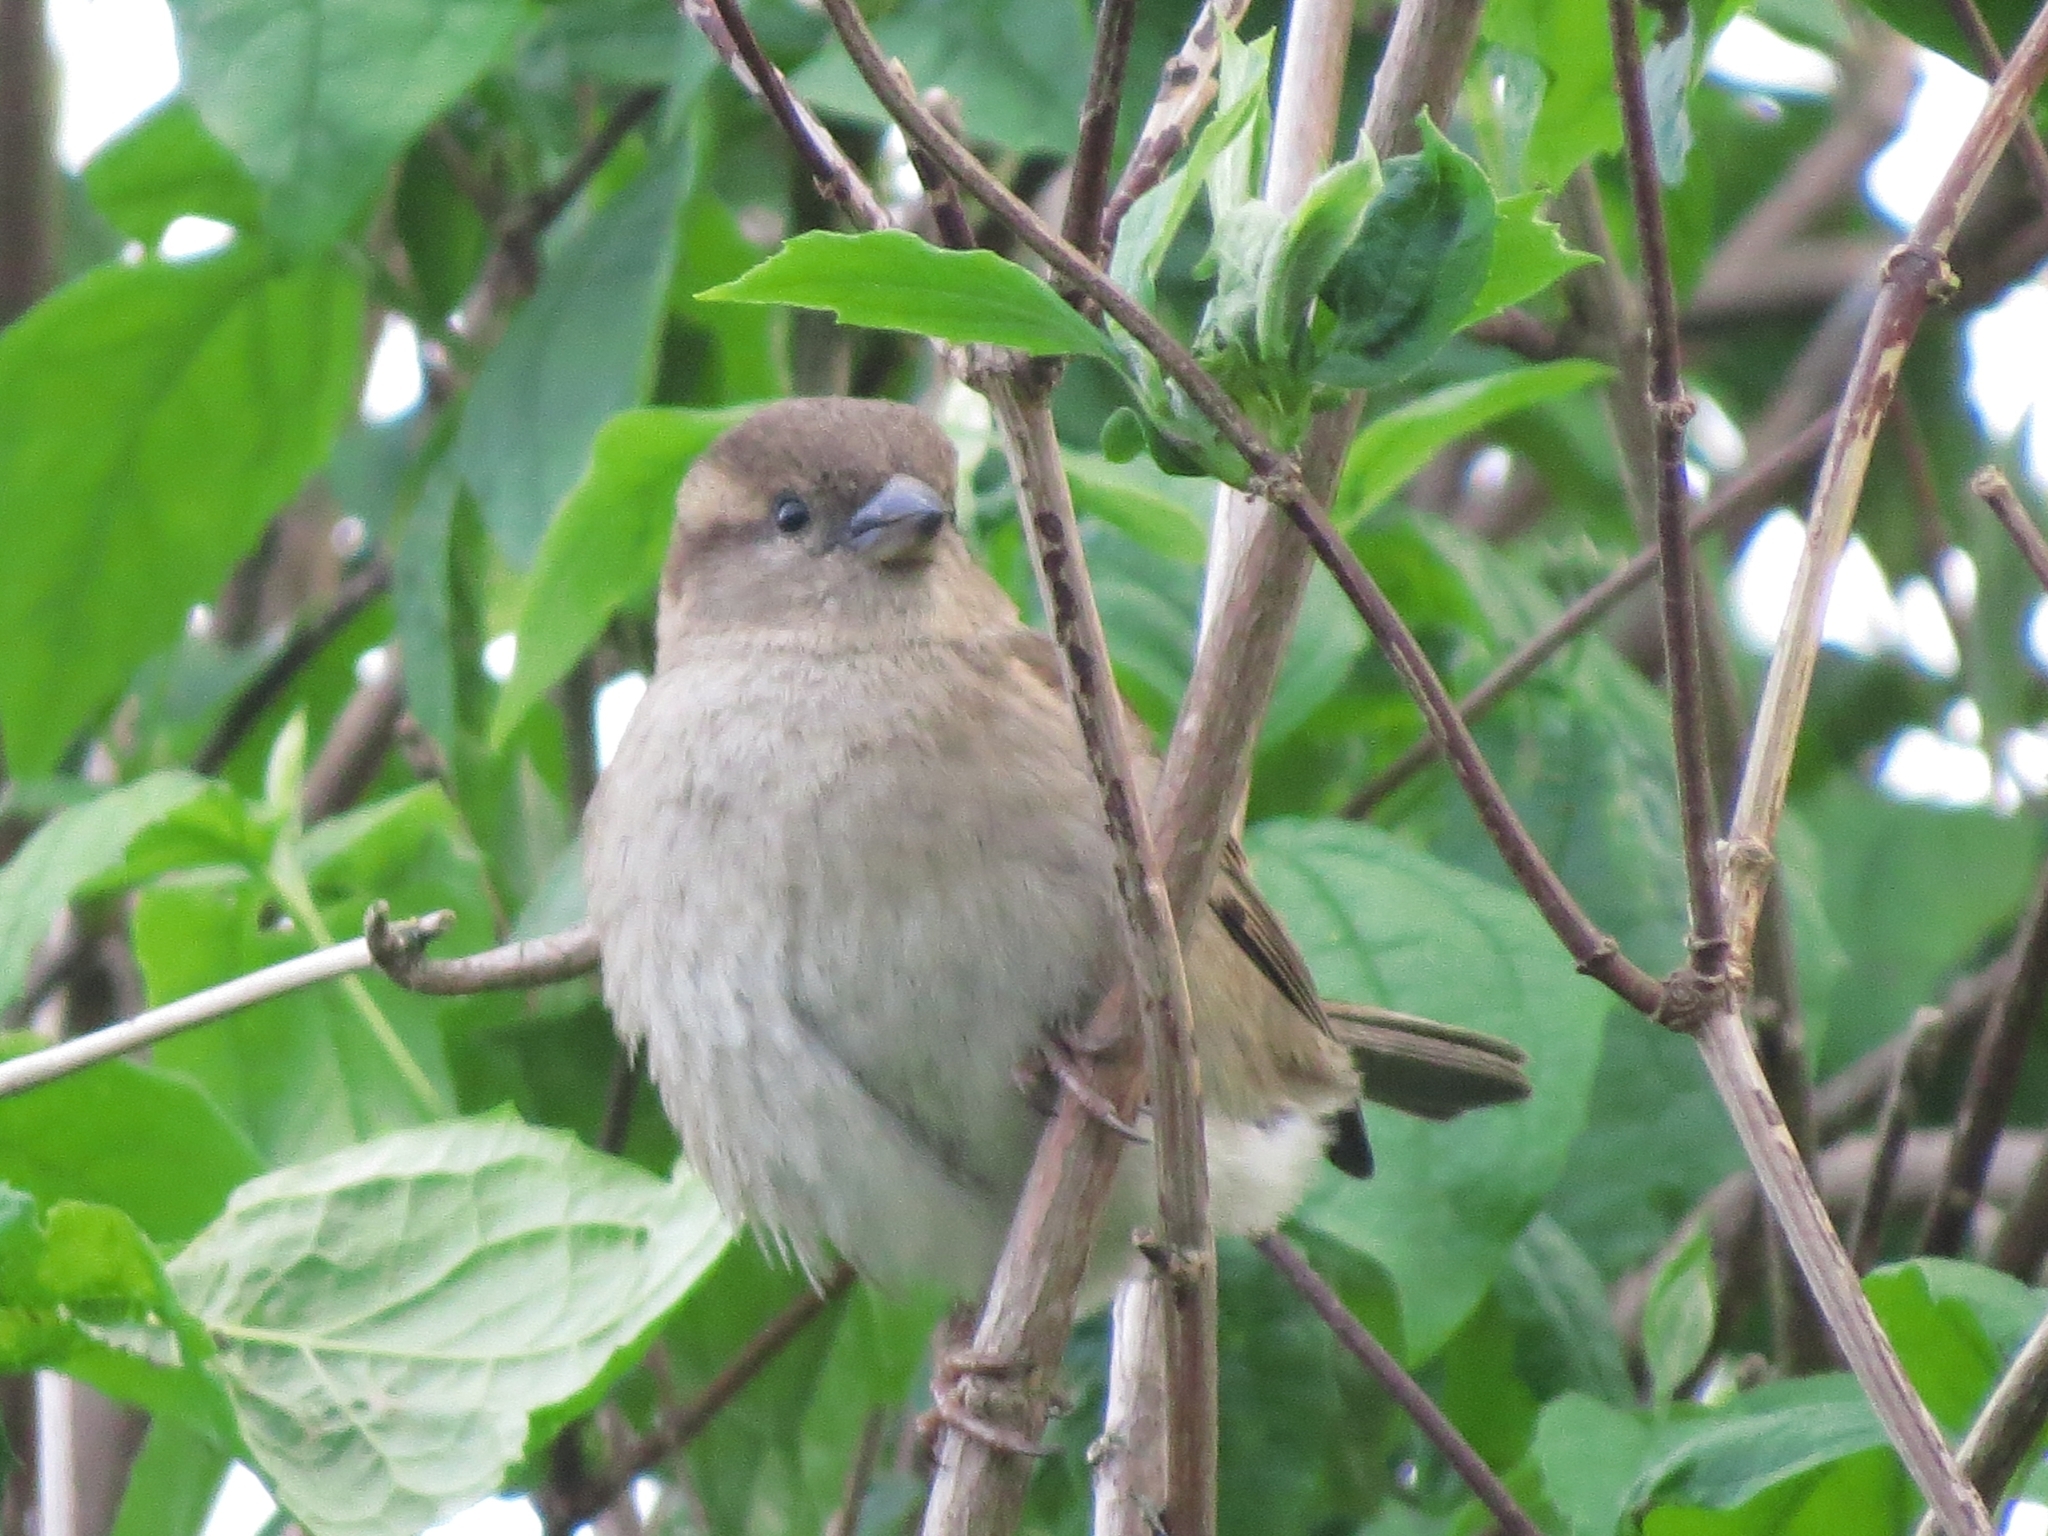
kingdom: Animalia
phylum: Chordata
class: Aves
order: Passeriformes
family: Passeridae
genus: Passer
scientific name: Passer domesticus
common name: House sparrow
